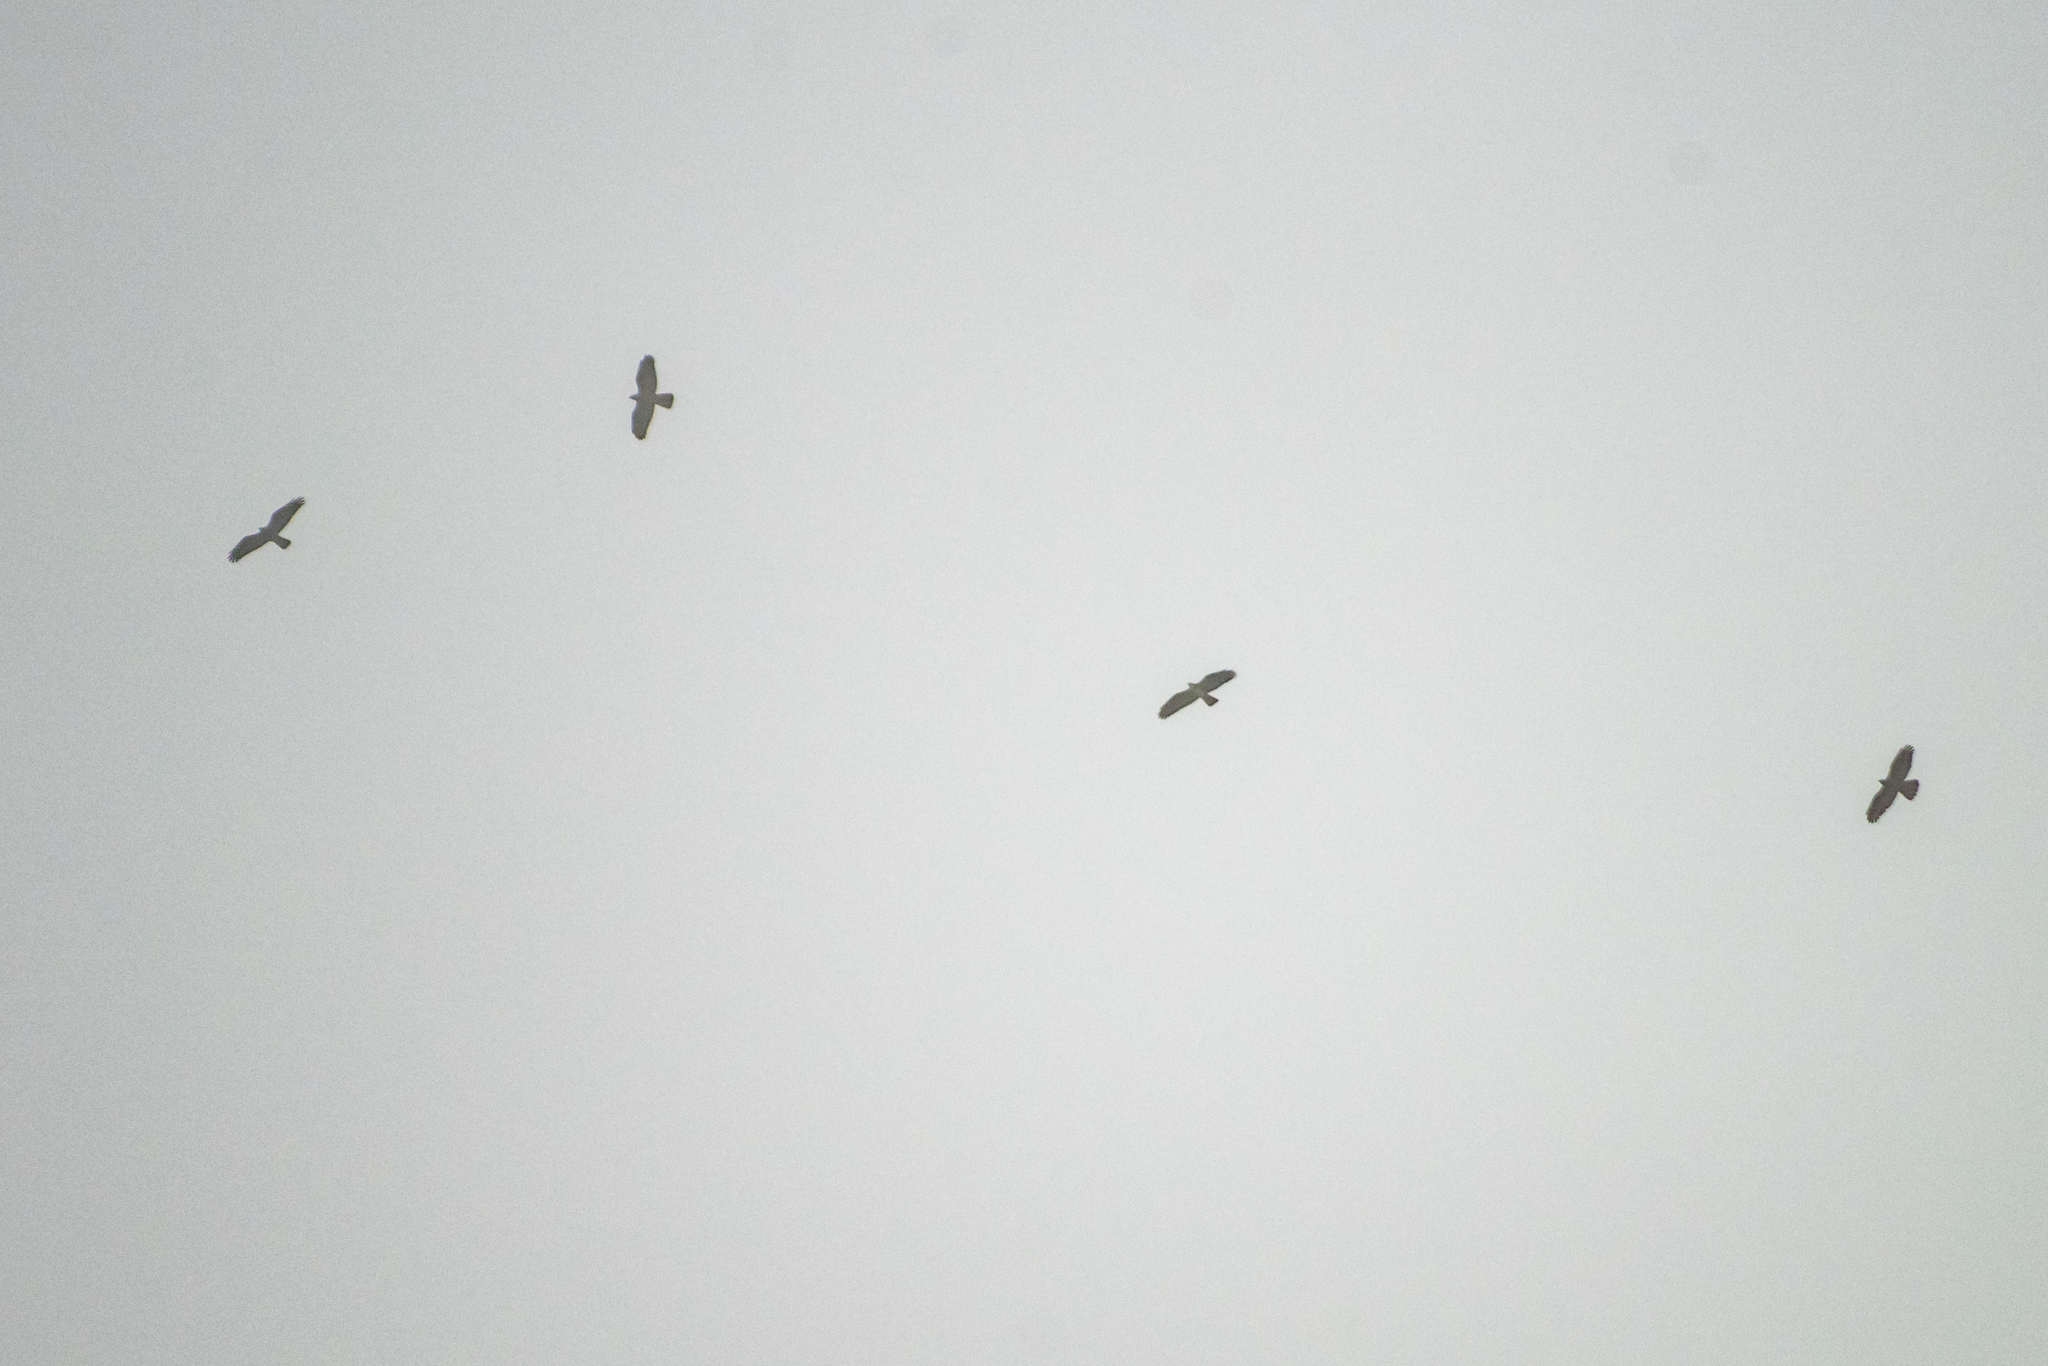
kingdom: Animalia
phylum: Chordata
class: Aves
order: Accipitriformes
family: Accipitridae
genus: Pernis
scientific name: Pernis apivorus
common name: European honey buzzard
